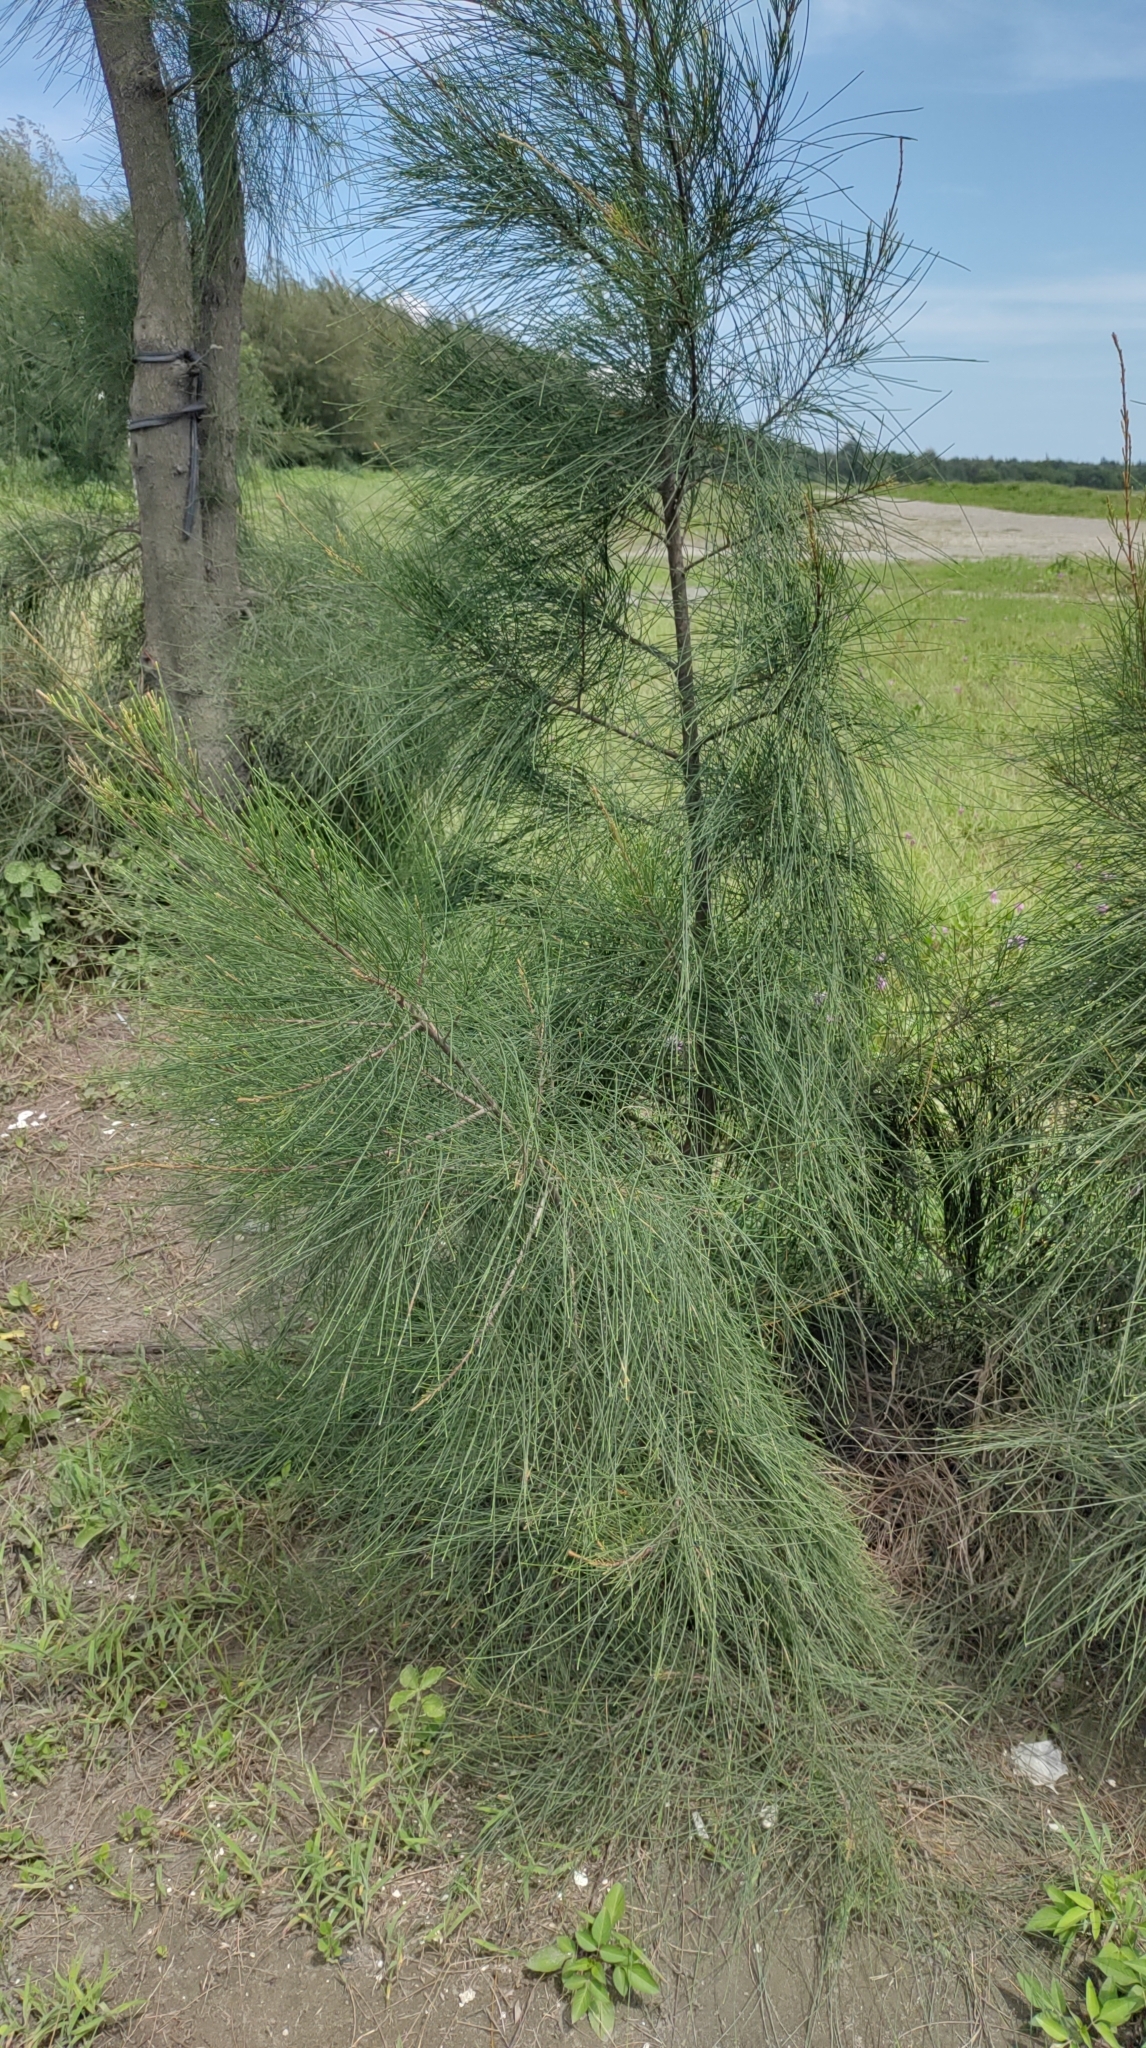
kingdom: Plantae
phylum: Tracheophyta
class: Magnoliopsida
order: Fagales
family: Casuarinaceae
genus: Casuarina
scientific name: Casuarina equisetifolia
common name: Beach sheoak
